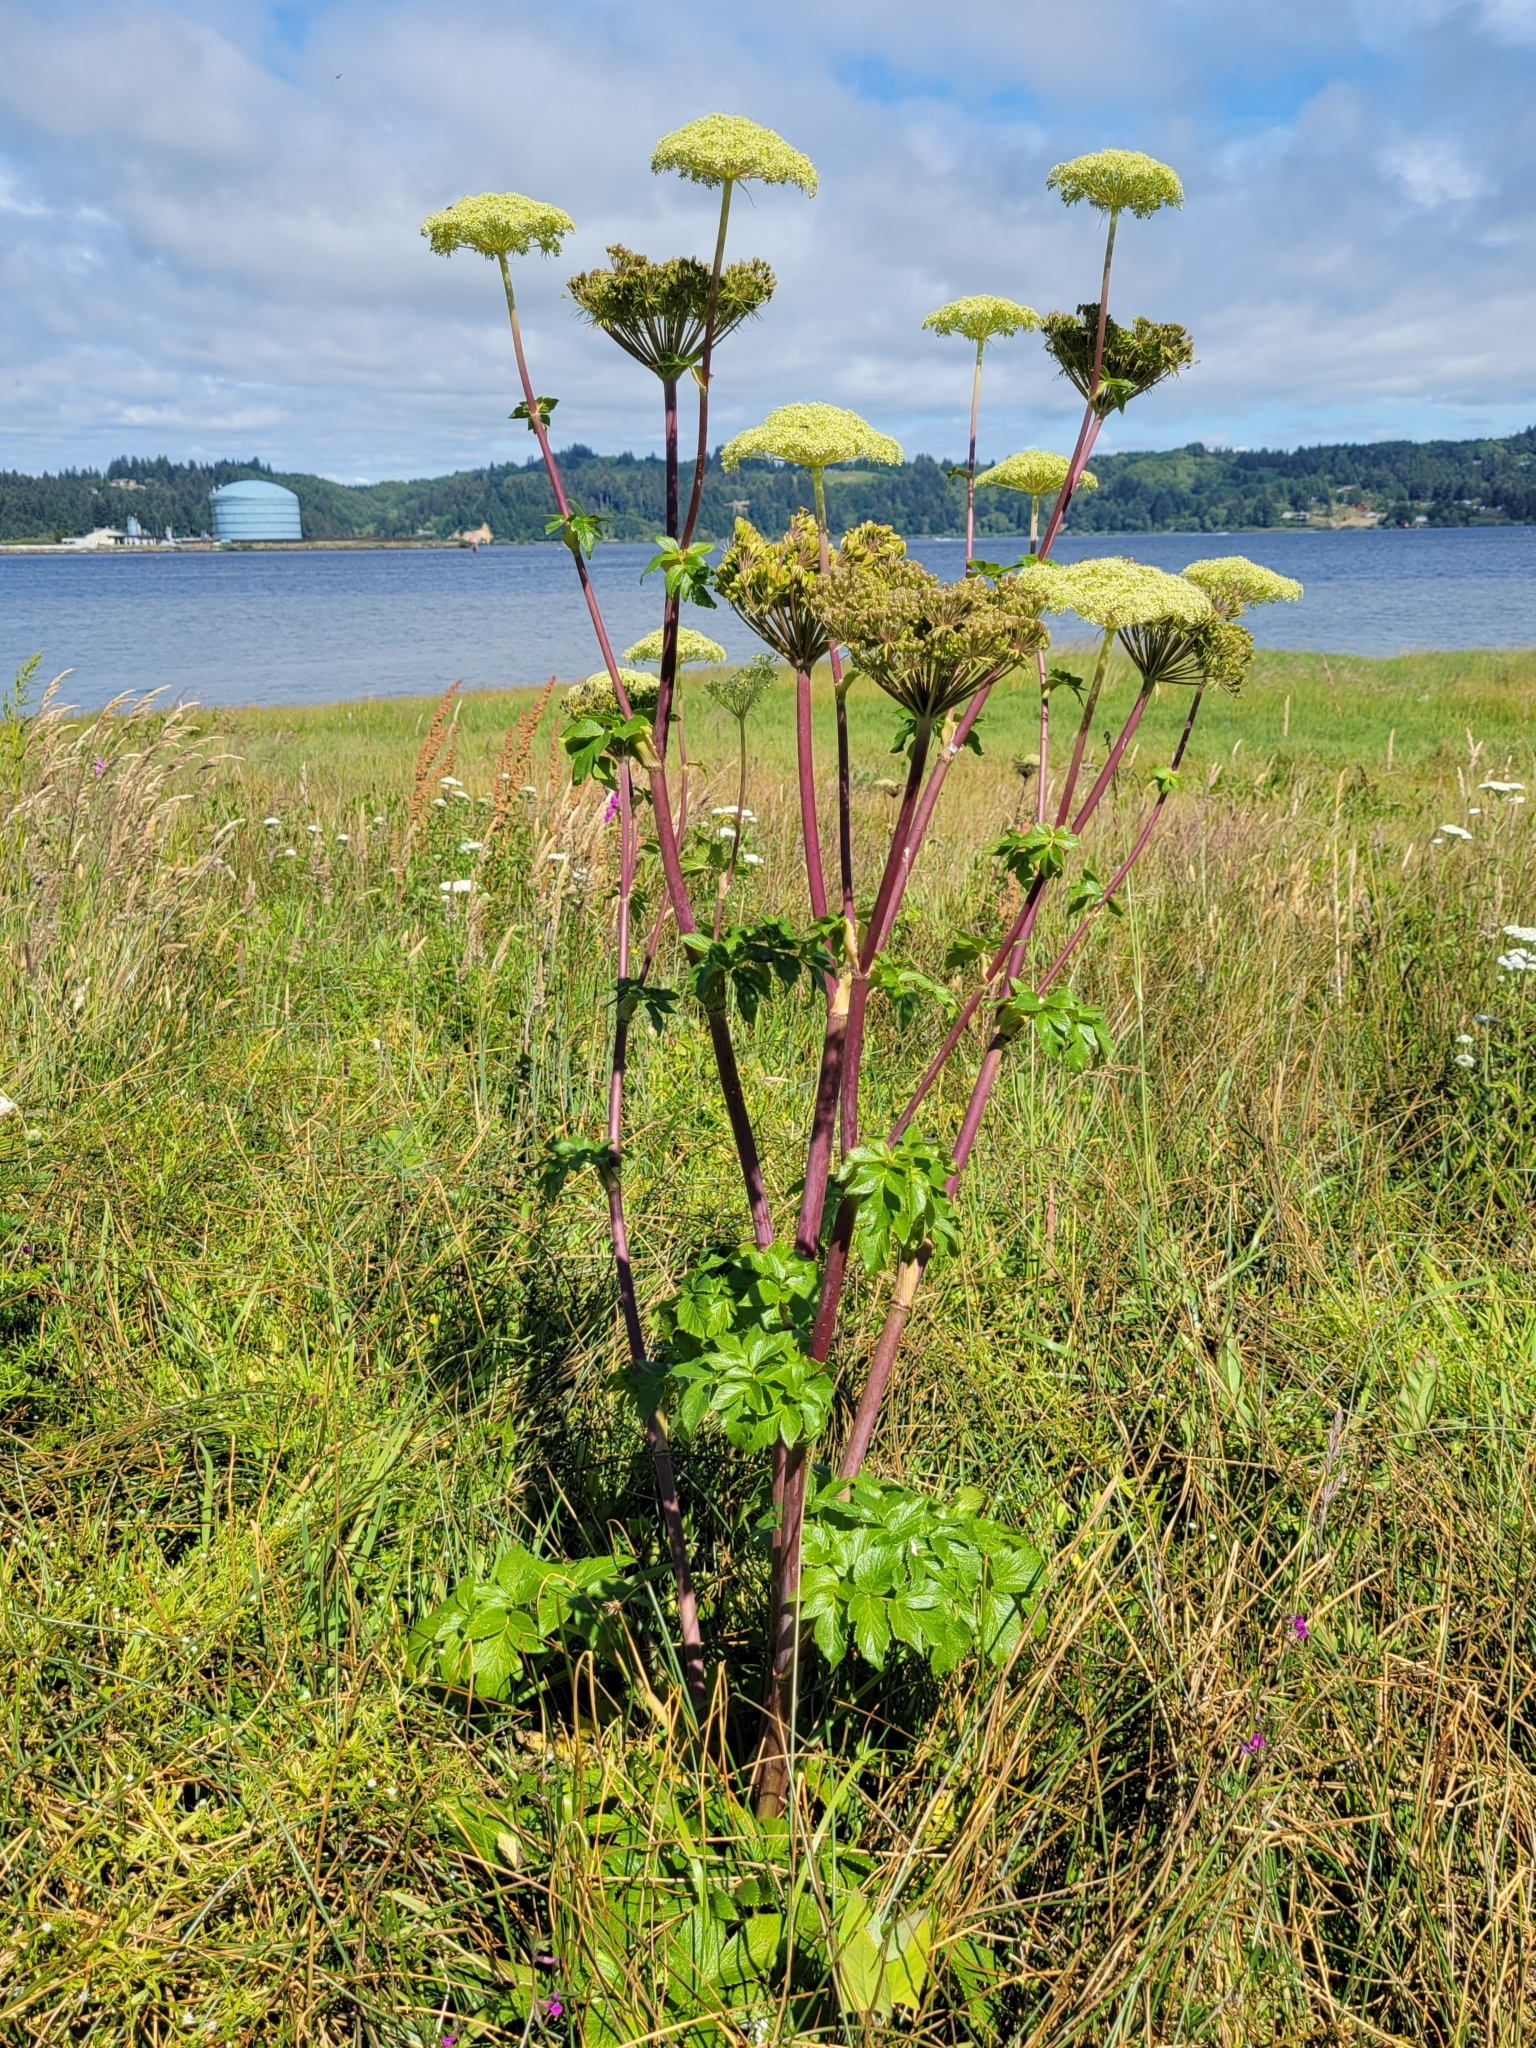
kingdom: Plantae
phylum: Tracheophyta
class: Magnoliopsida
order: Apiales
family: Apiaceae
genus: Angelica
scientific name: Angelica lucida
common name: Seabeach angelica
